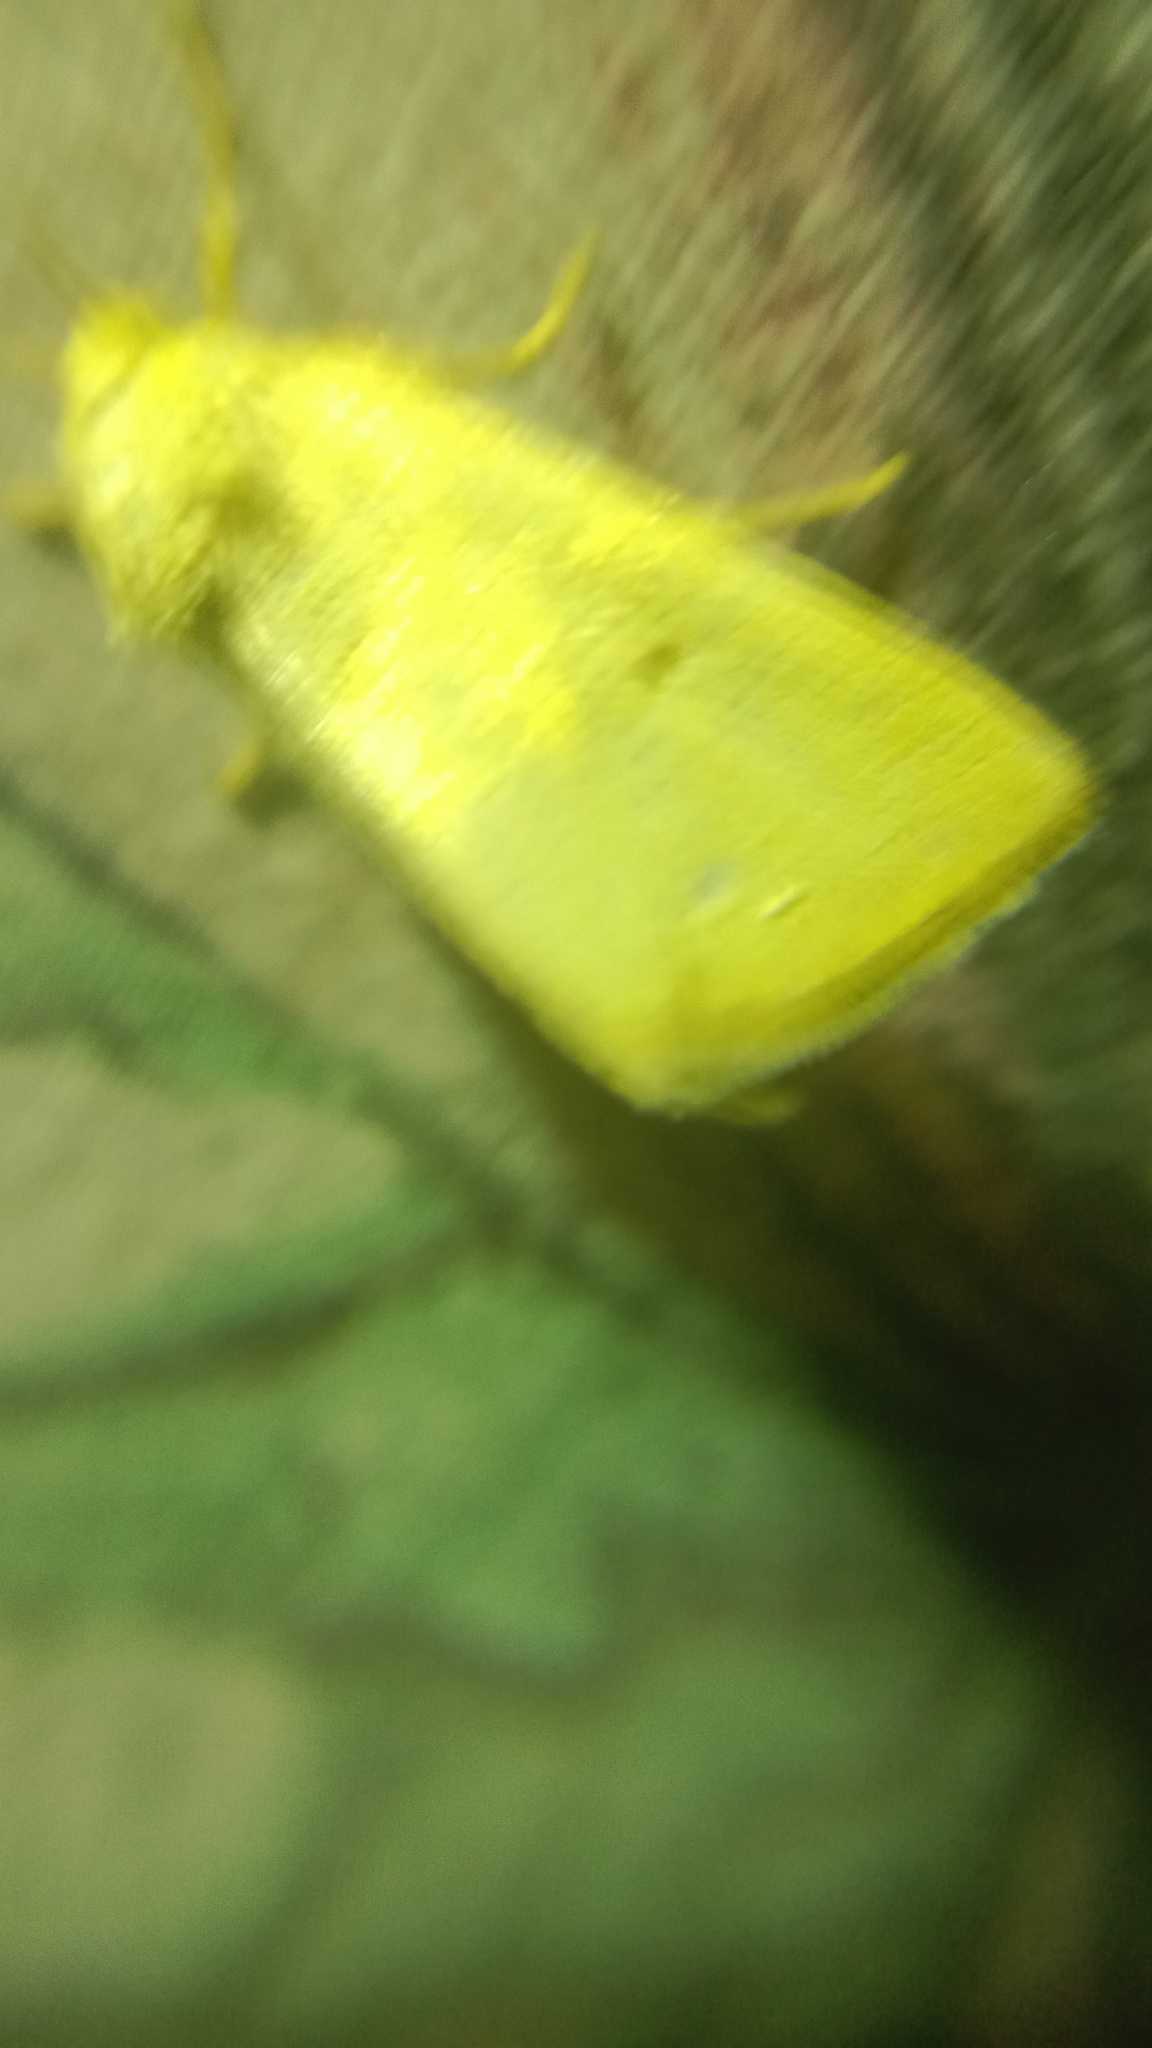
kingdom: Animalia
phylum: Arthropoda
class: Insecta
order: Lepidoptera
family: Noctuidae
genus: Aegle
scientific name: Aegle kaekeritziana
